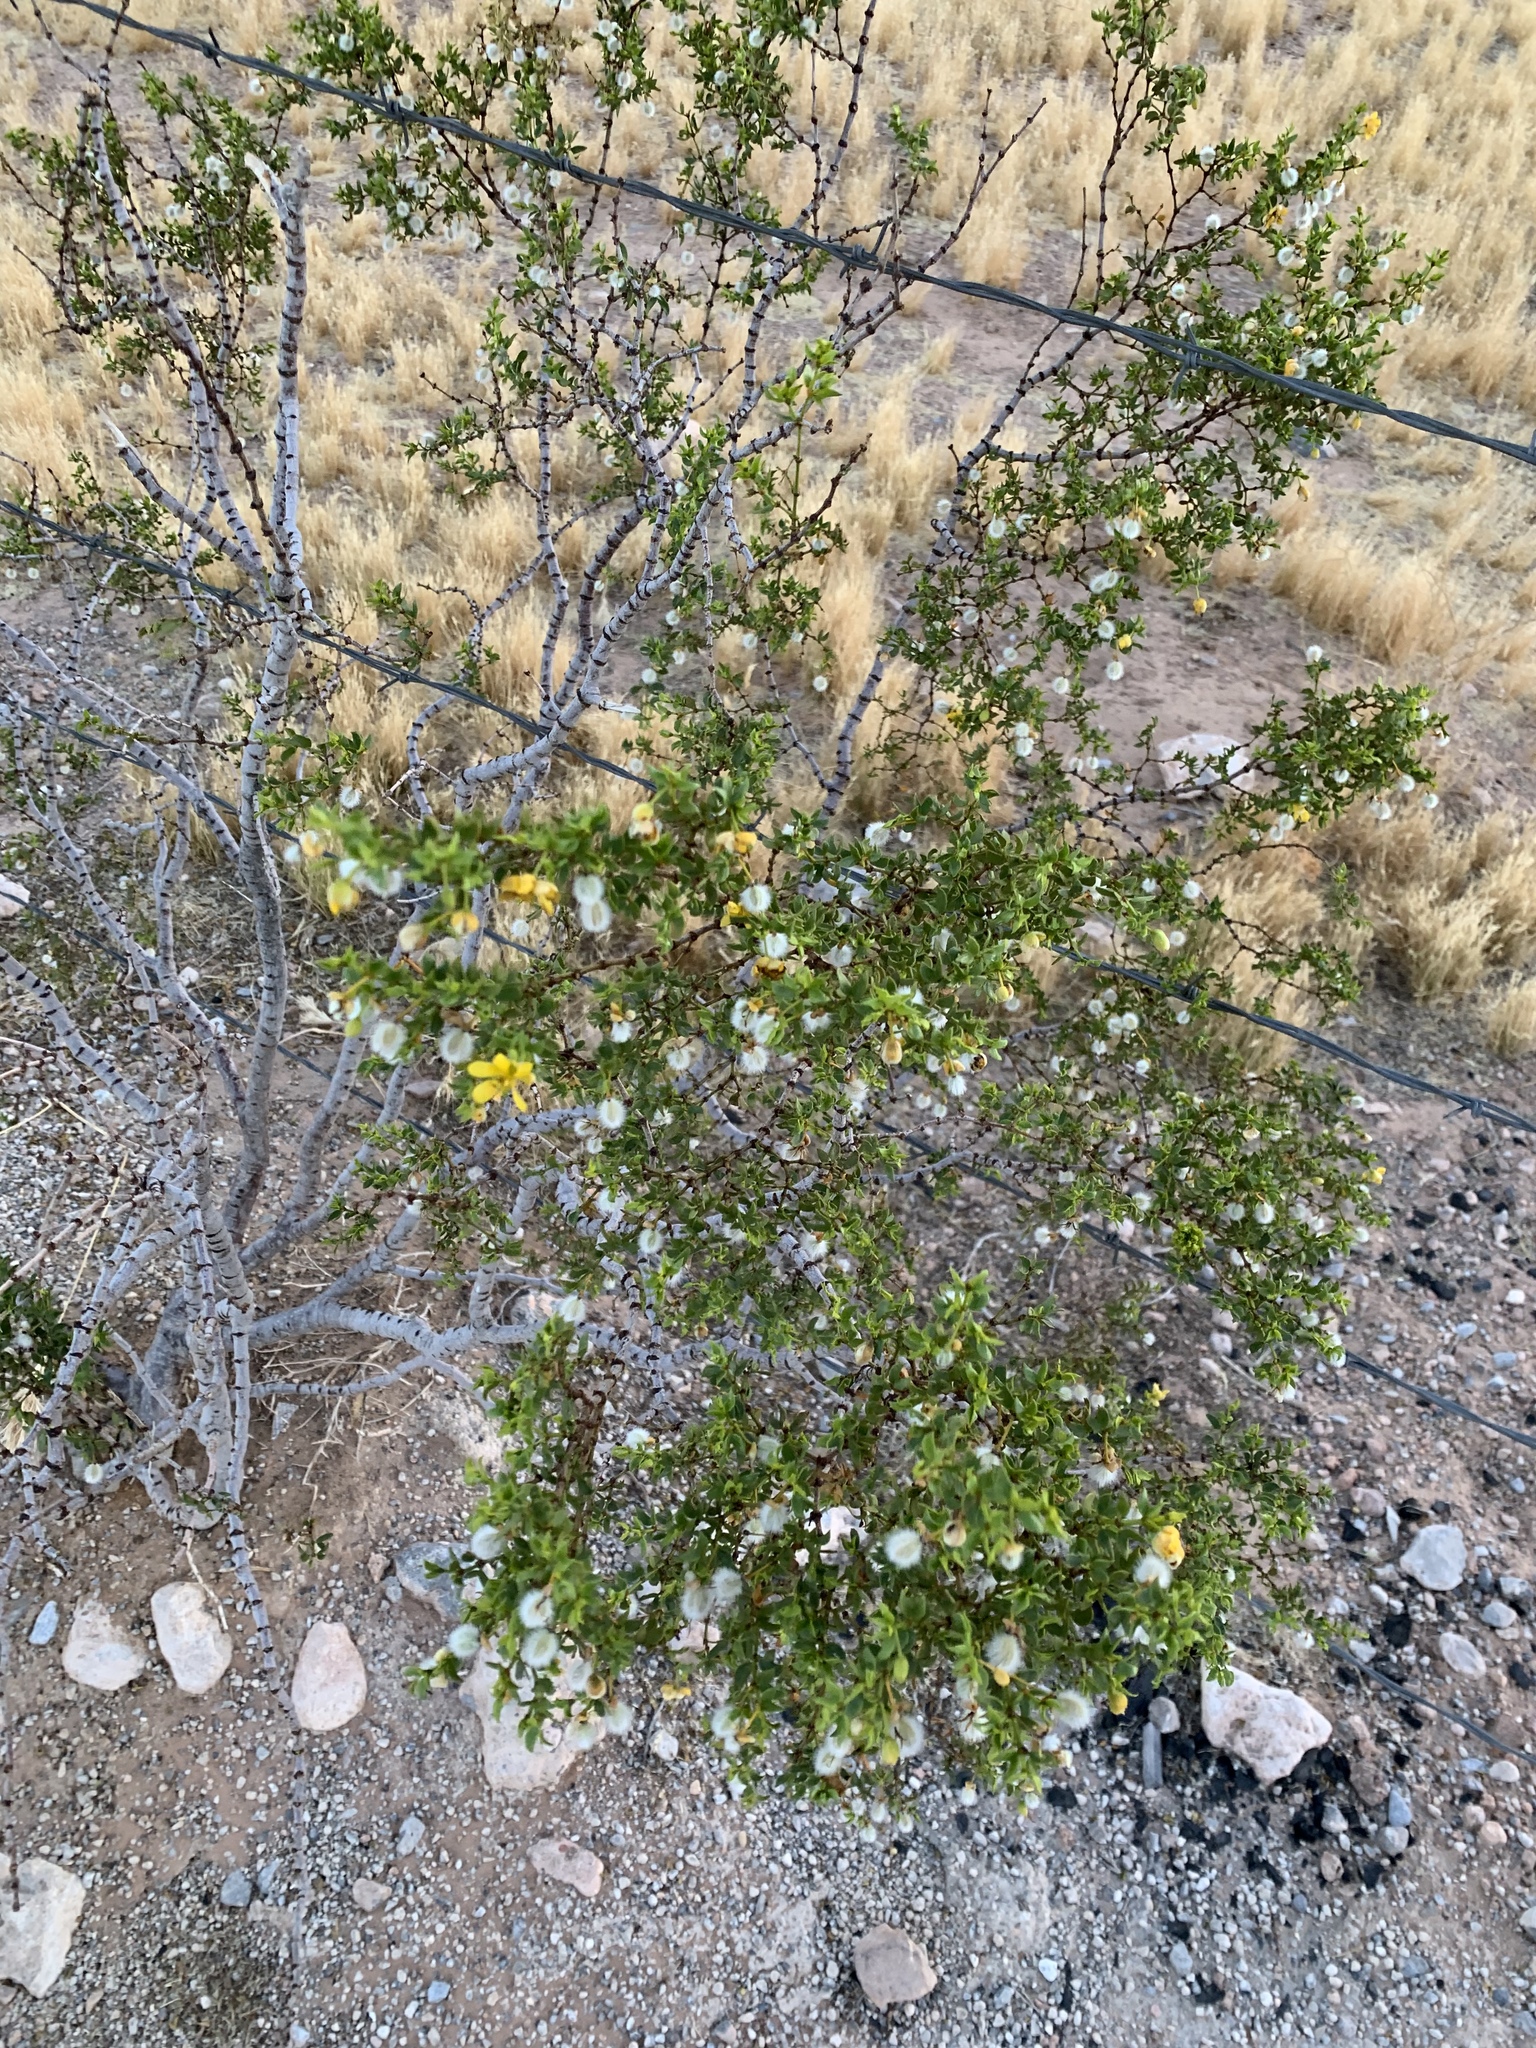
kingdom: Plantae
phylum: Tracheophyta
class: Magnoliopsida
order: Zygophyllales
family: Zygophyllaceae
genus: Larrea
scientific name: Larrea tridentata
